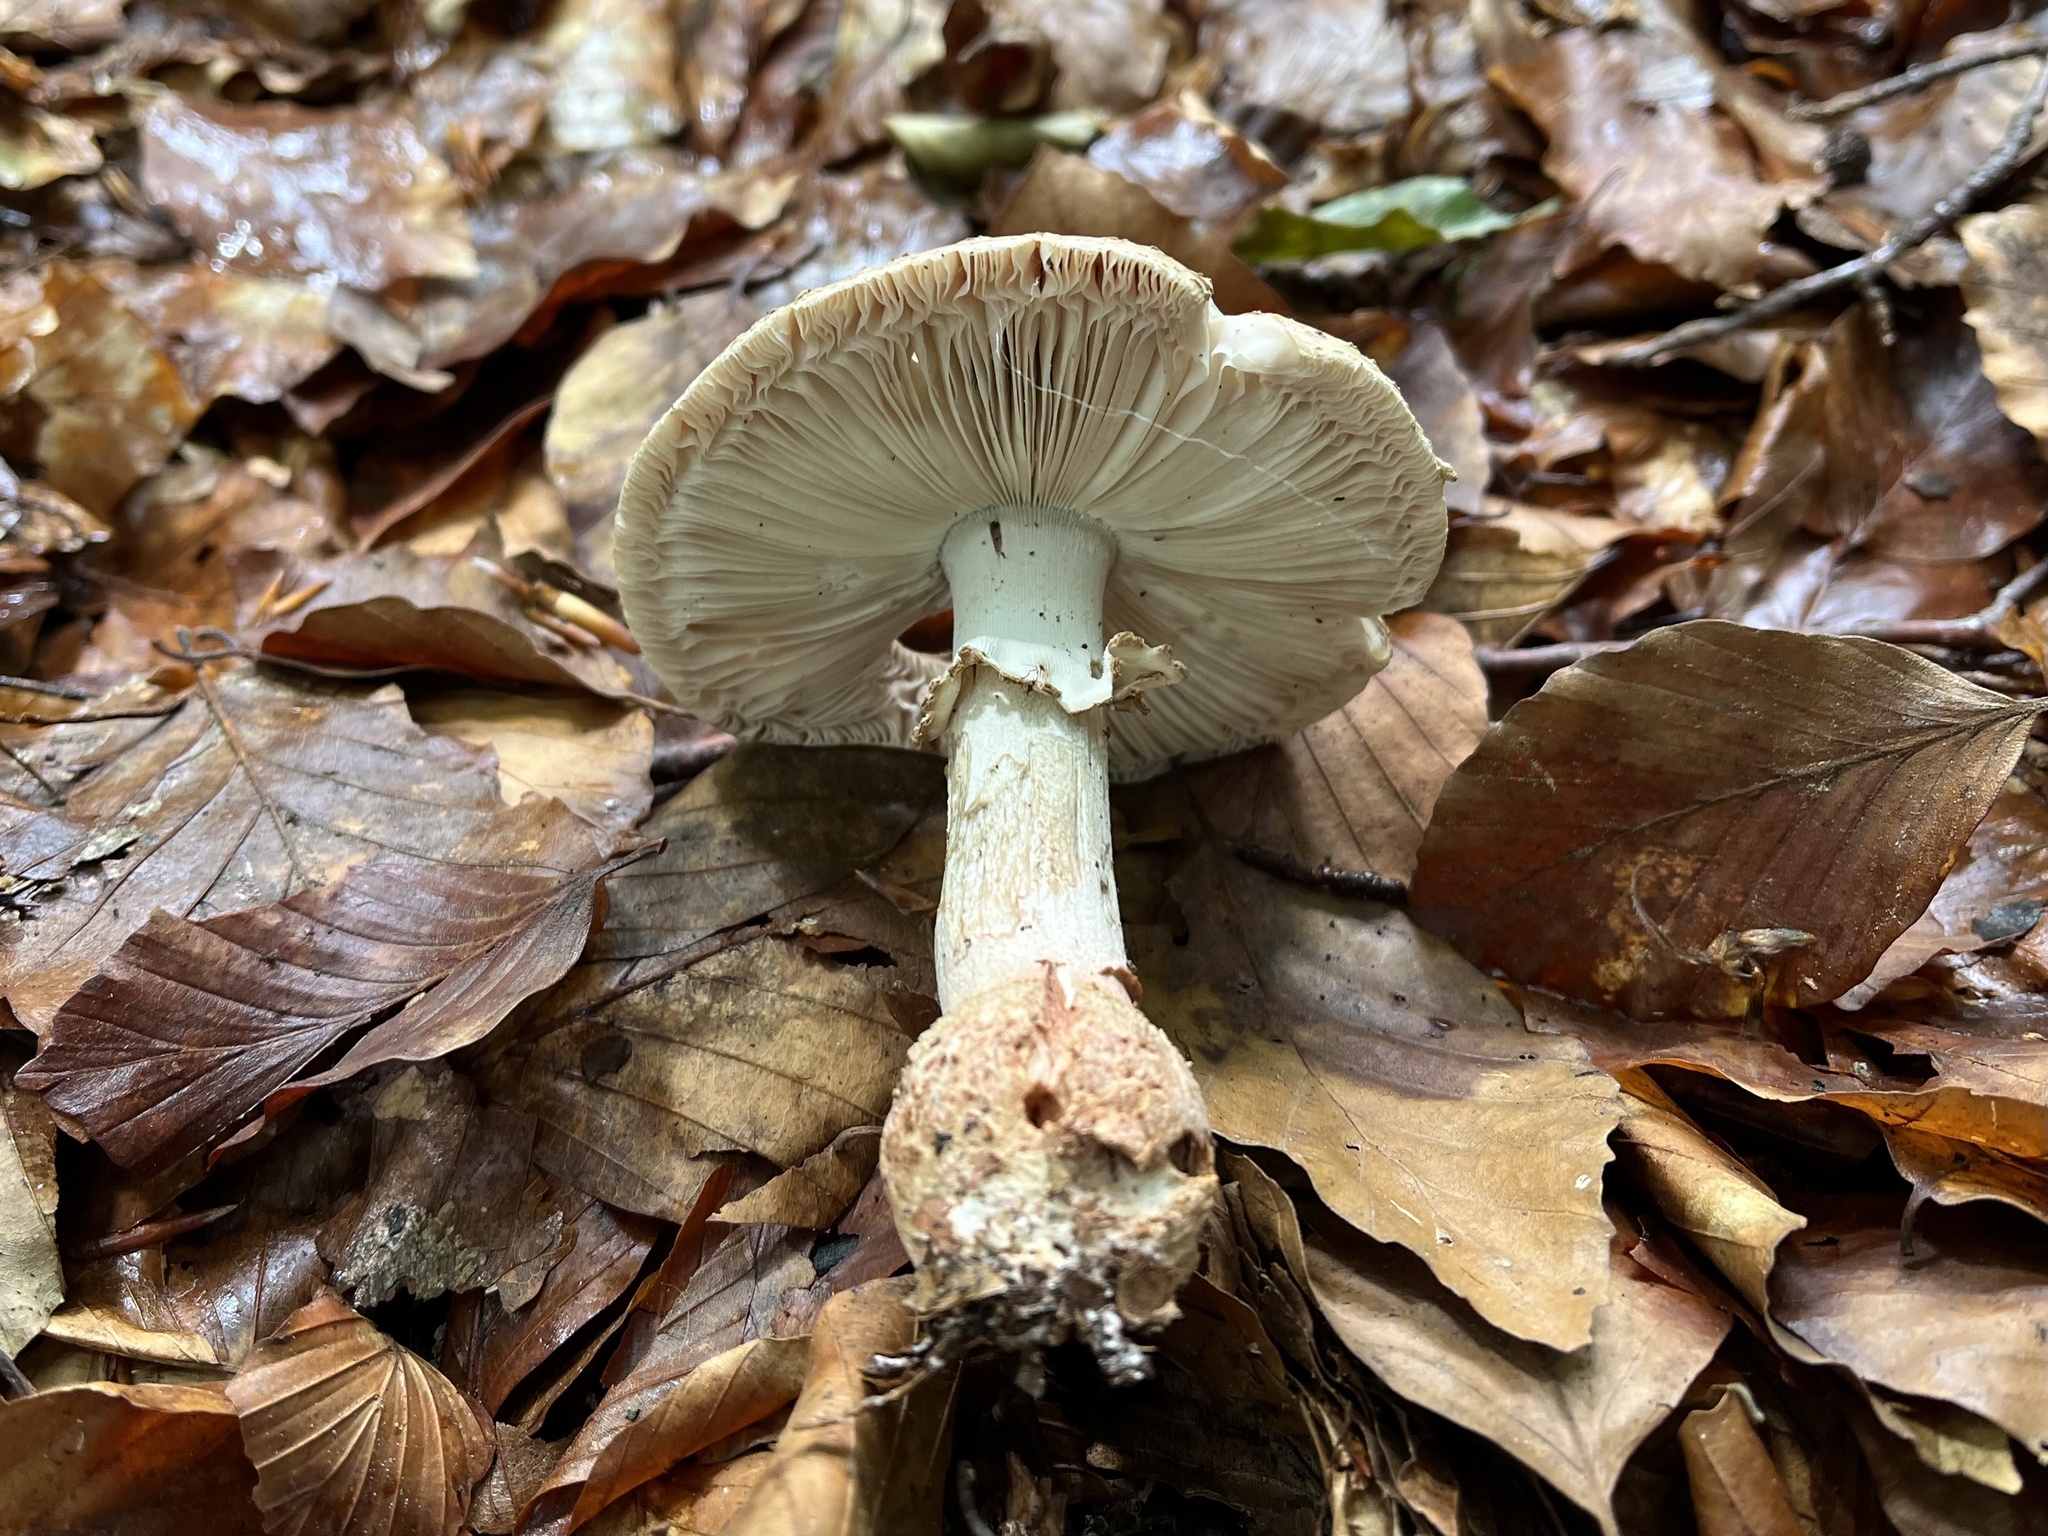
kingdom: Fungi
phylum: Basidiomycota
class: Agaricomycetes
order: Agaricales
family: Amanitaceae
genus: Amanita
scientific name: Amanita rubescens
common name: Blusher
